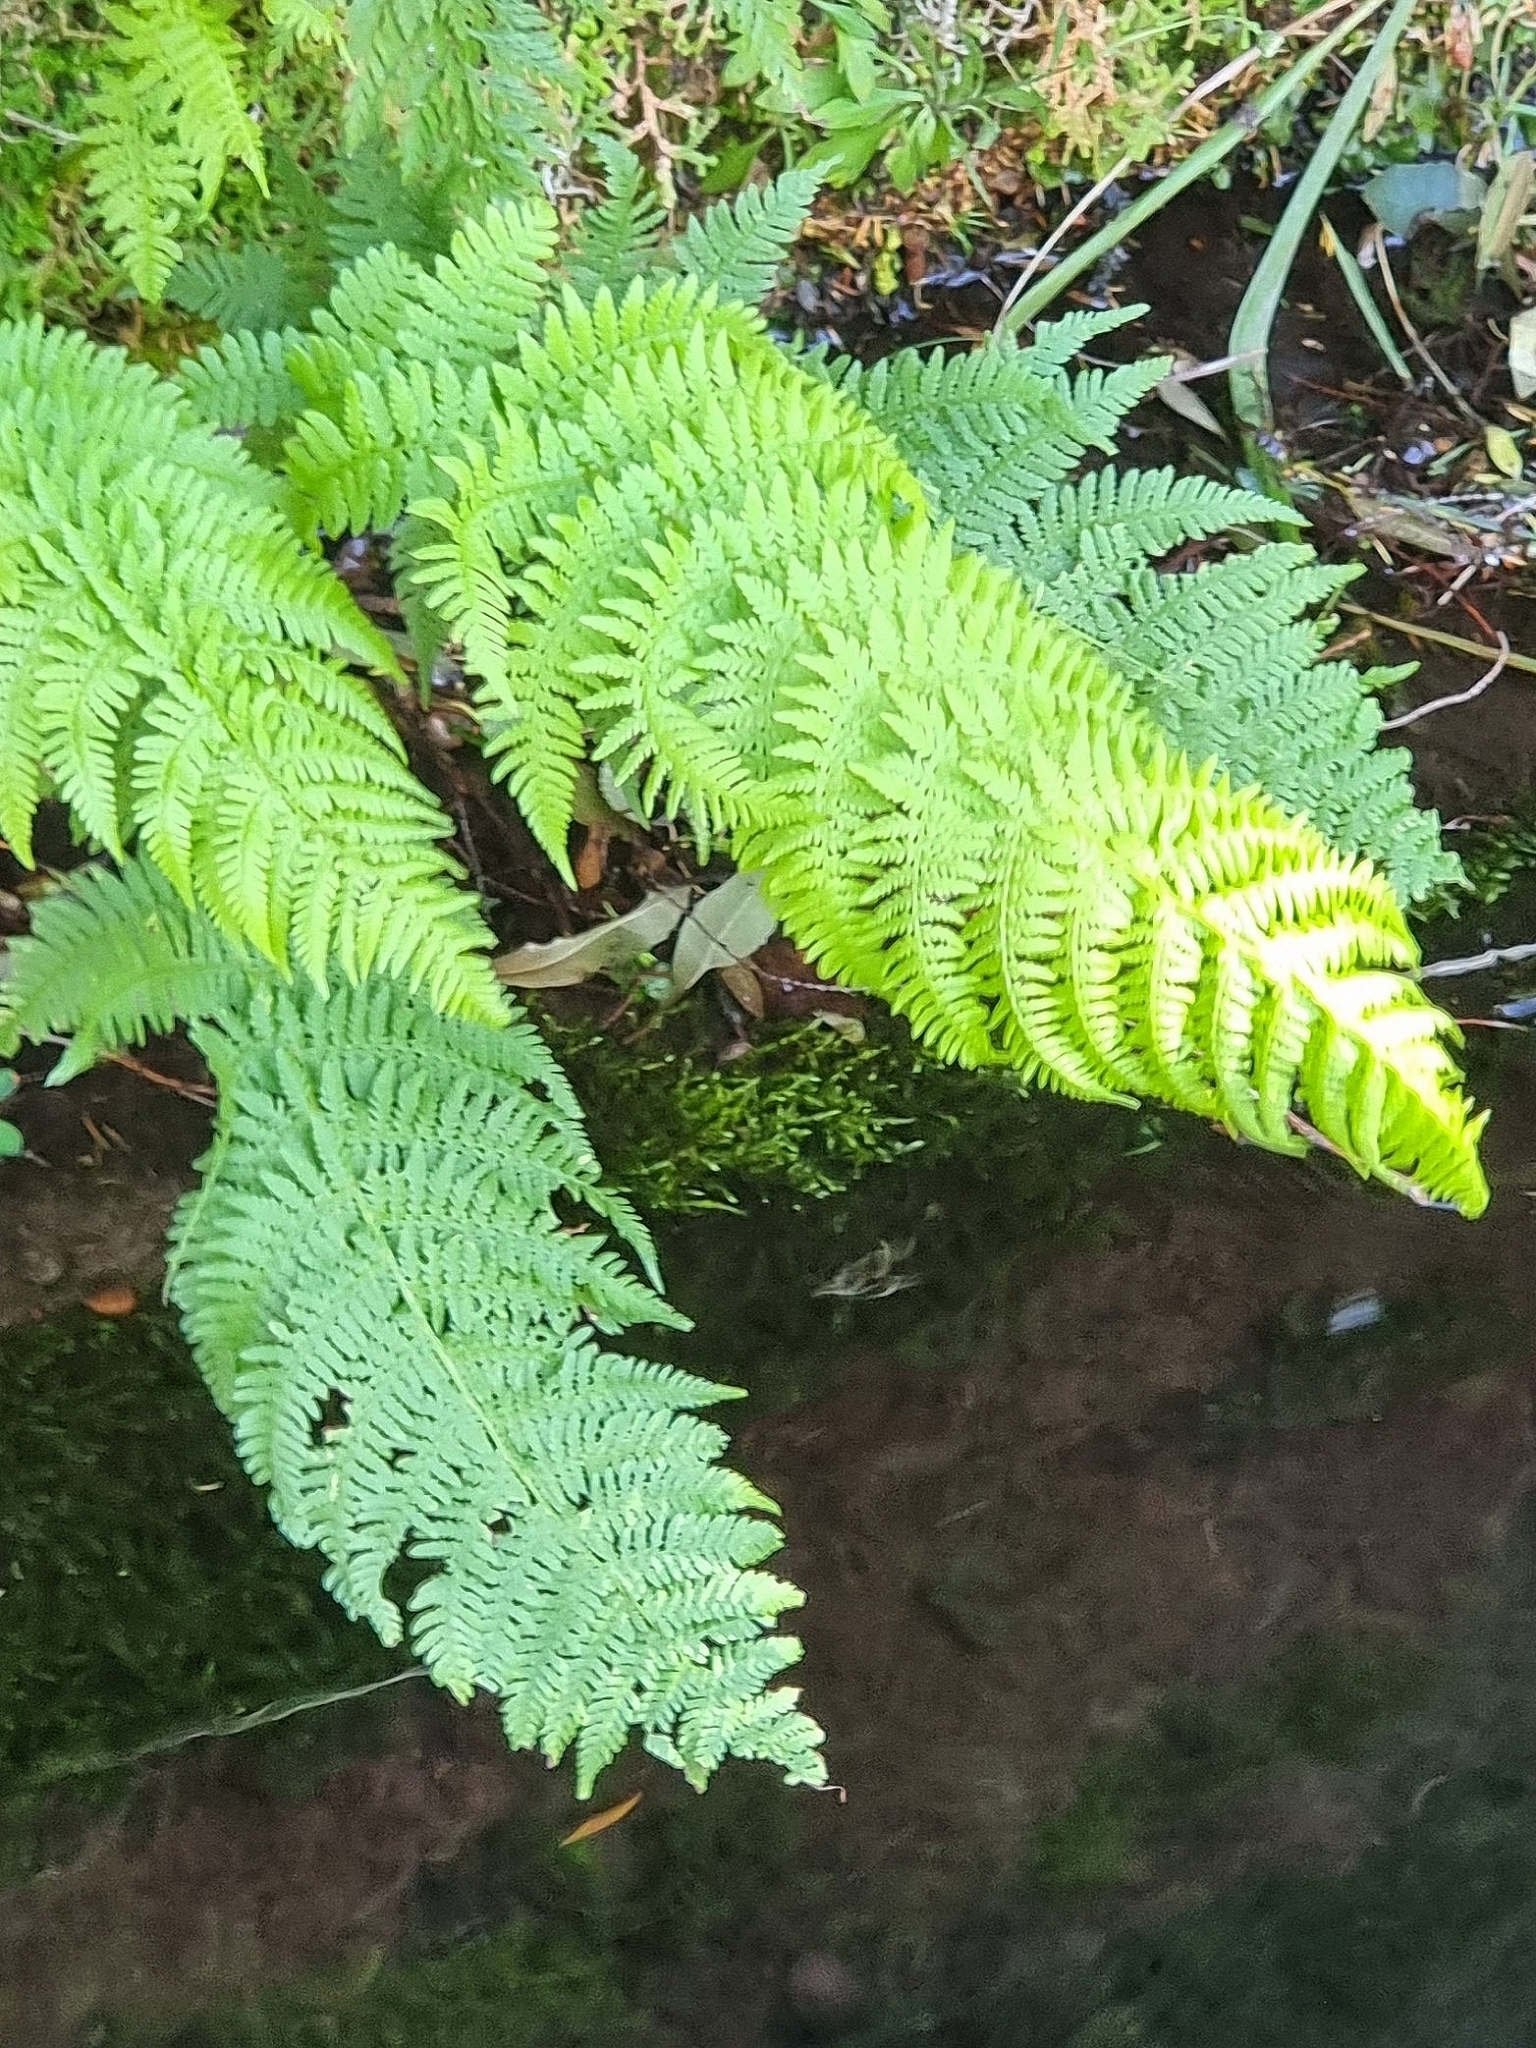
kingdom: Plantae
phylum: Tracheophyta
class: Polypodiopsida
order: Polypodiales
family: Athyriaceae
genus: Athyrium
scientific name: Athyrium filix-femina
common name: Lady fern
